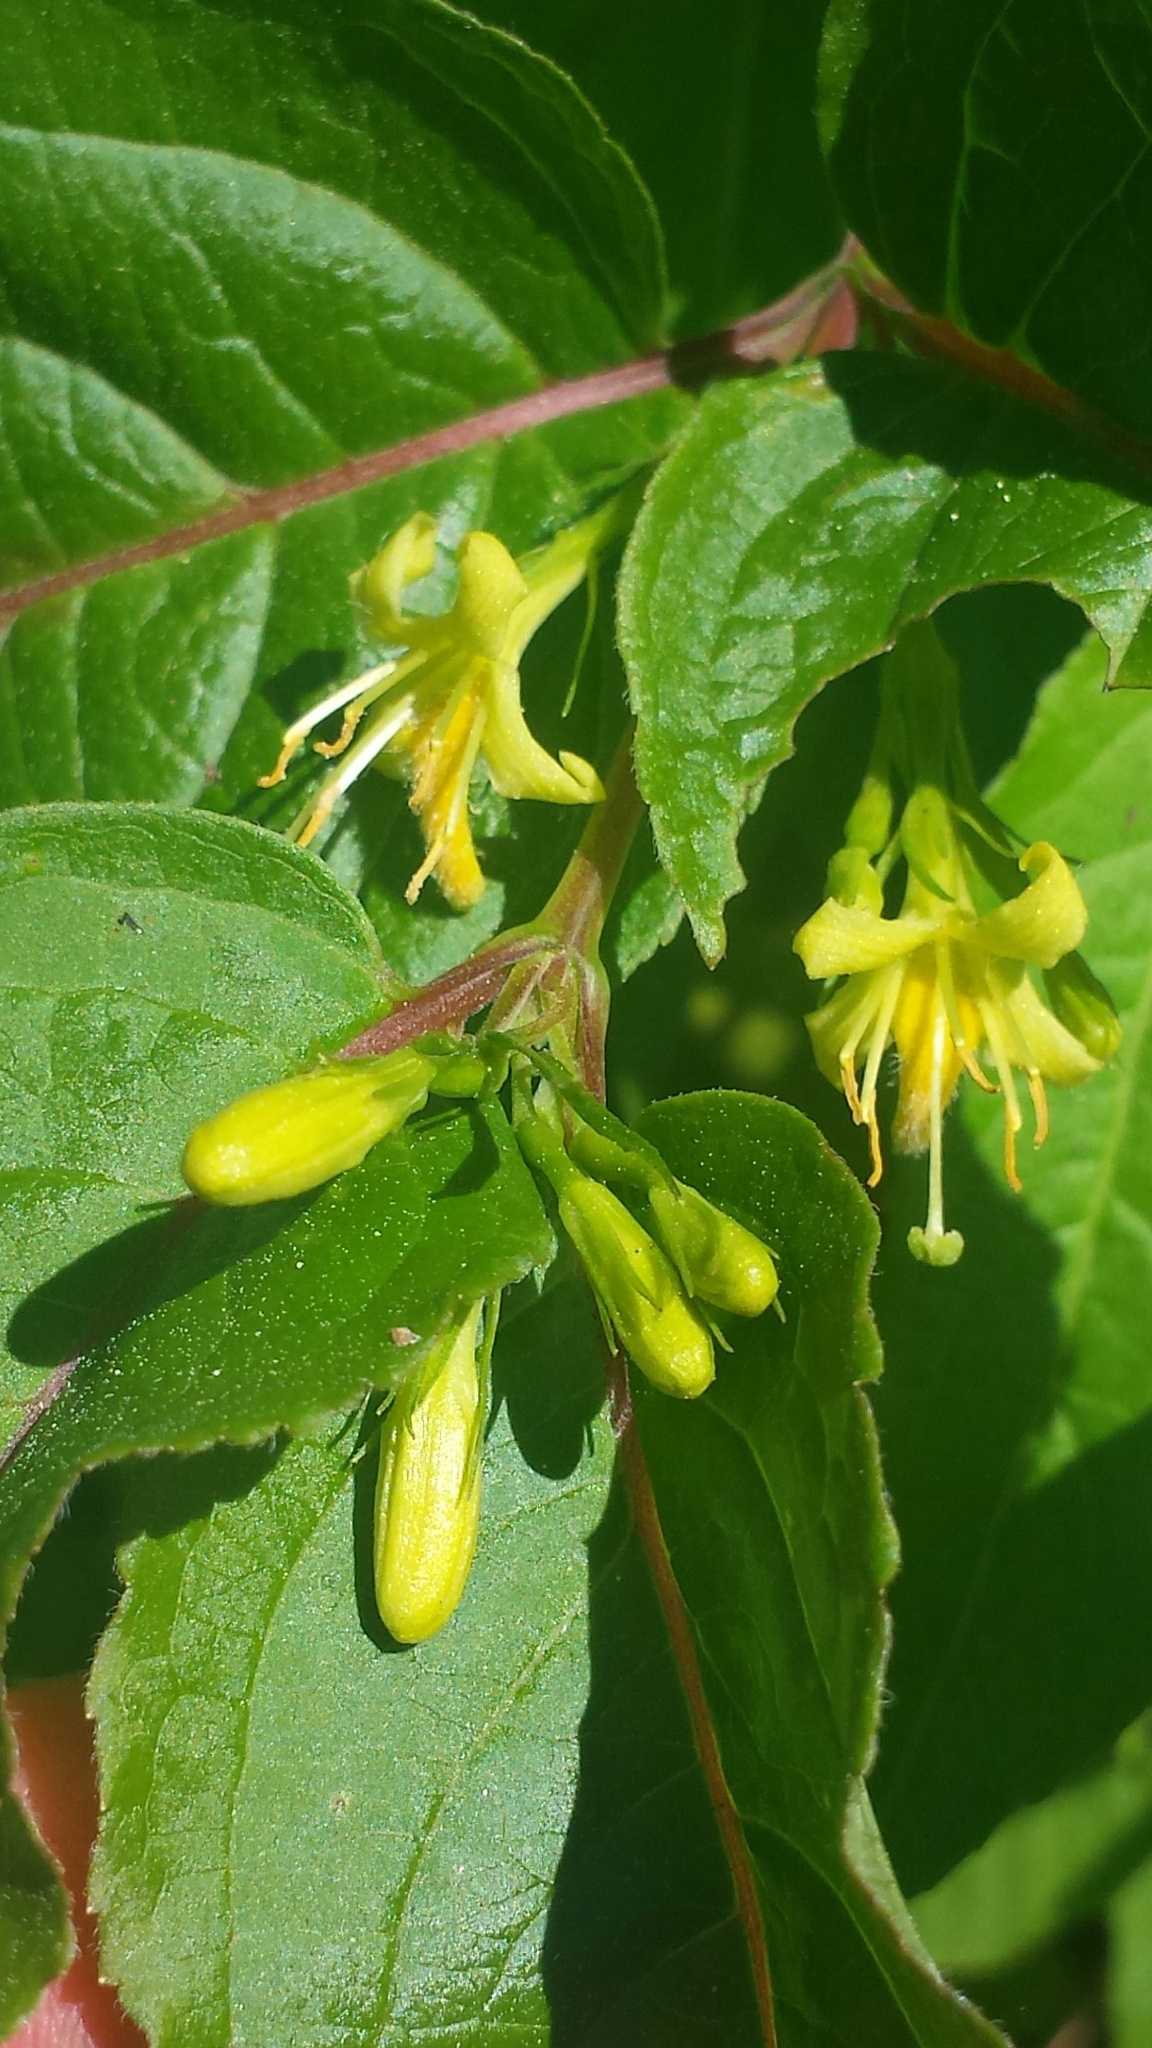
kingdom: Plantae
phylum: Tracheophyta
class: Magnoliopsida
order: Dipsacales
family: Caprifoliaceae
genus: Diervilla
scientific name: Diervilla lonicera
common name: Bush-honeysuckle
